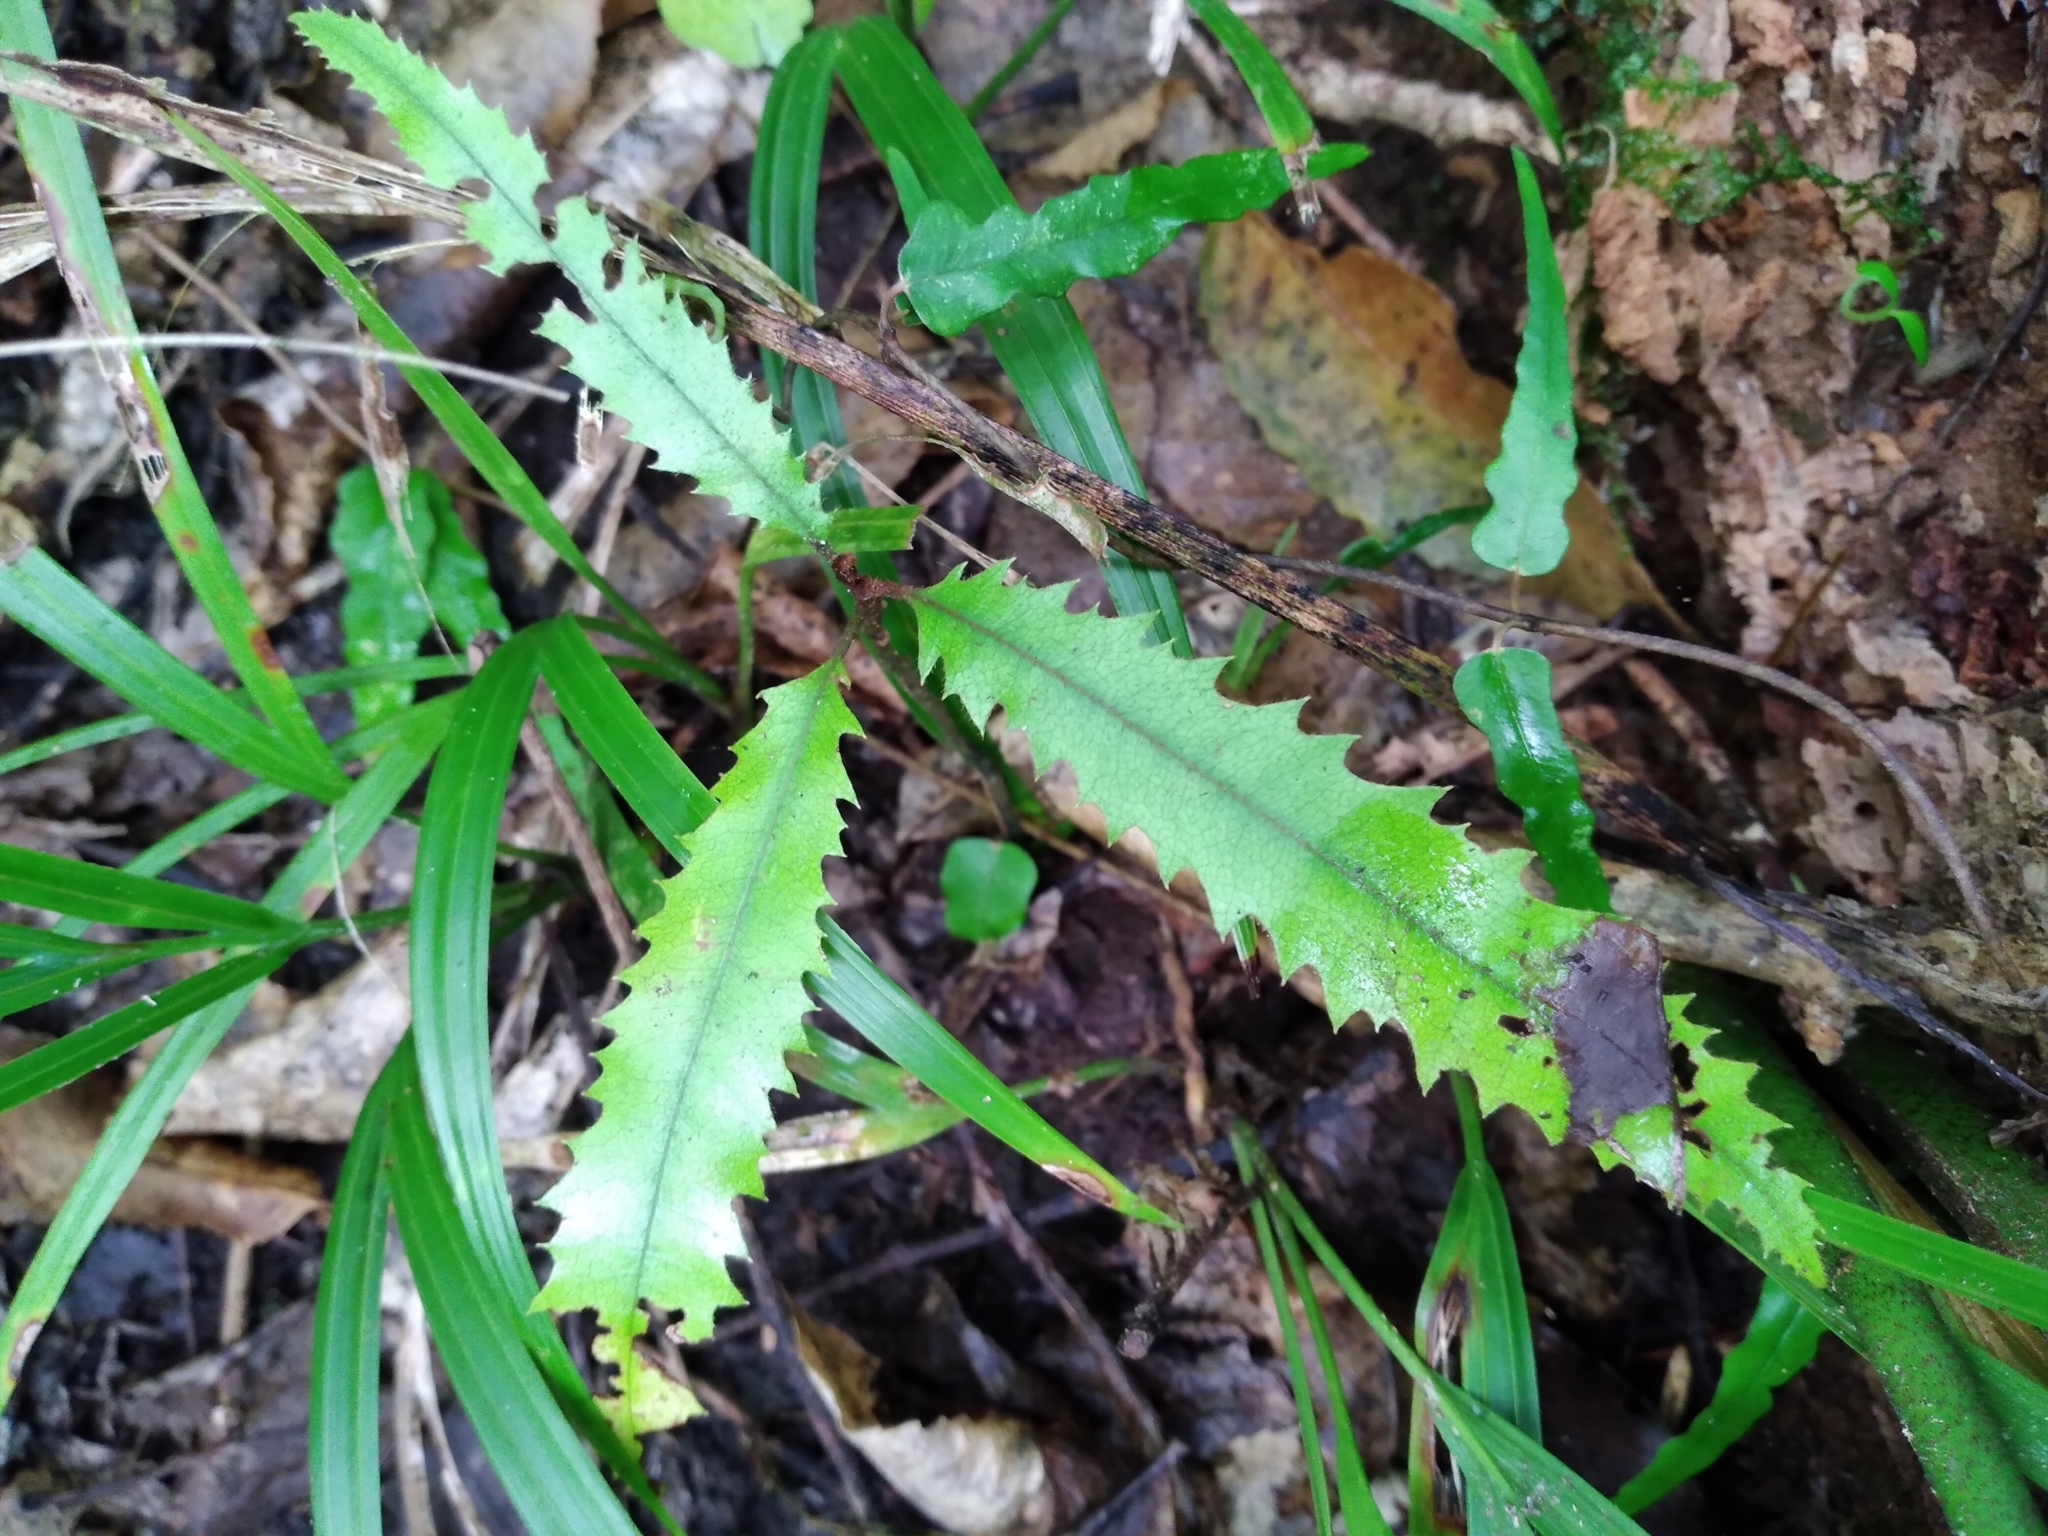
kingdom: Plantae
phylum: Tracheophyta
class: Magnoliopsida
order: Proteales
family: Proteaceae
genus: Knightia
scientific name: Knightia excelsa
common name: New zealand-honeysuckle
